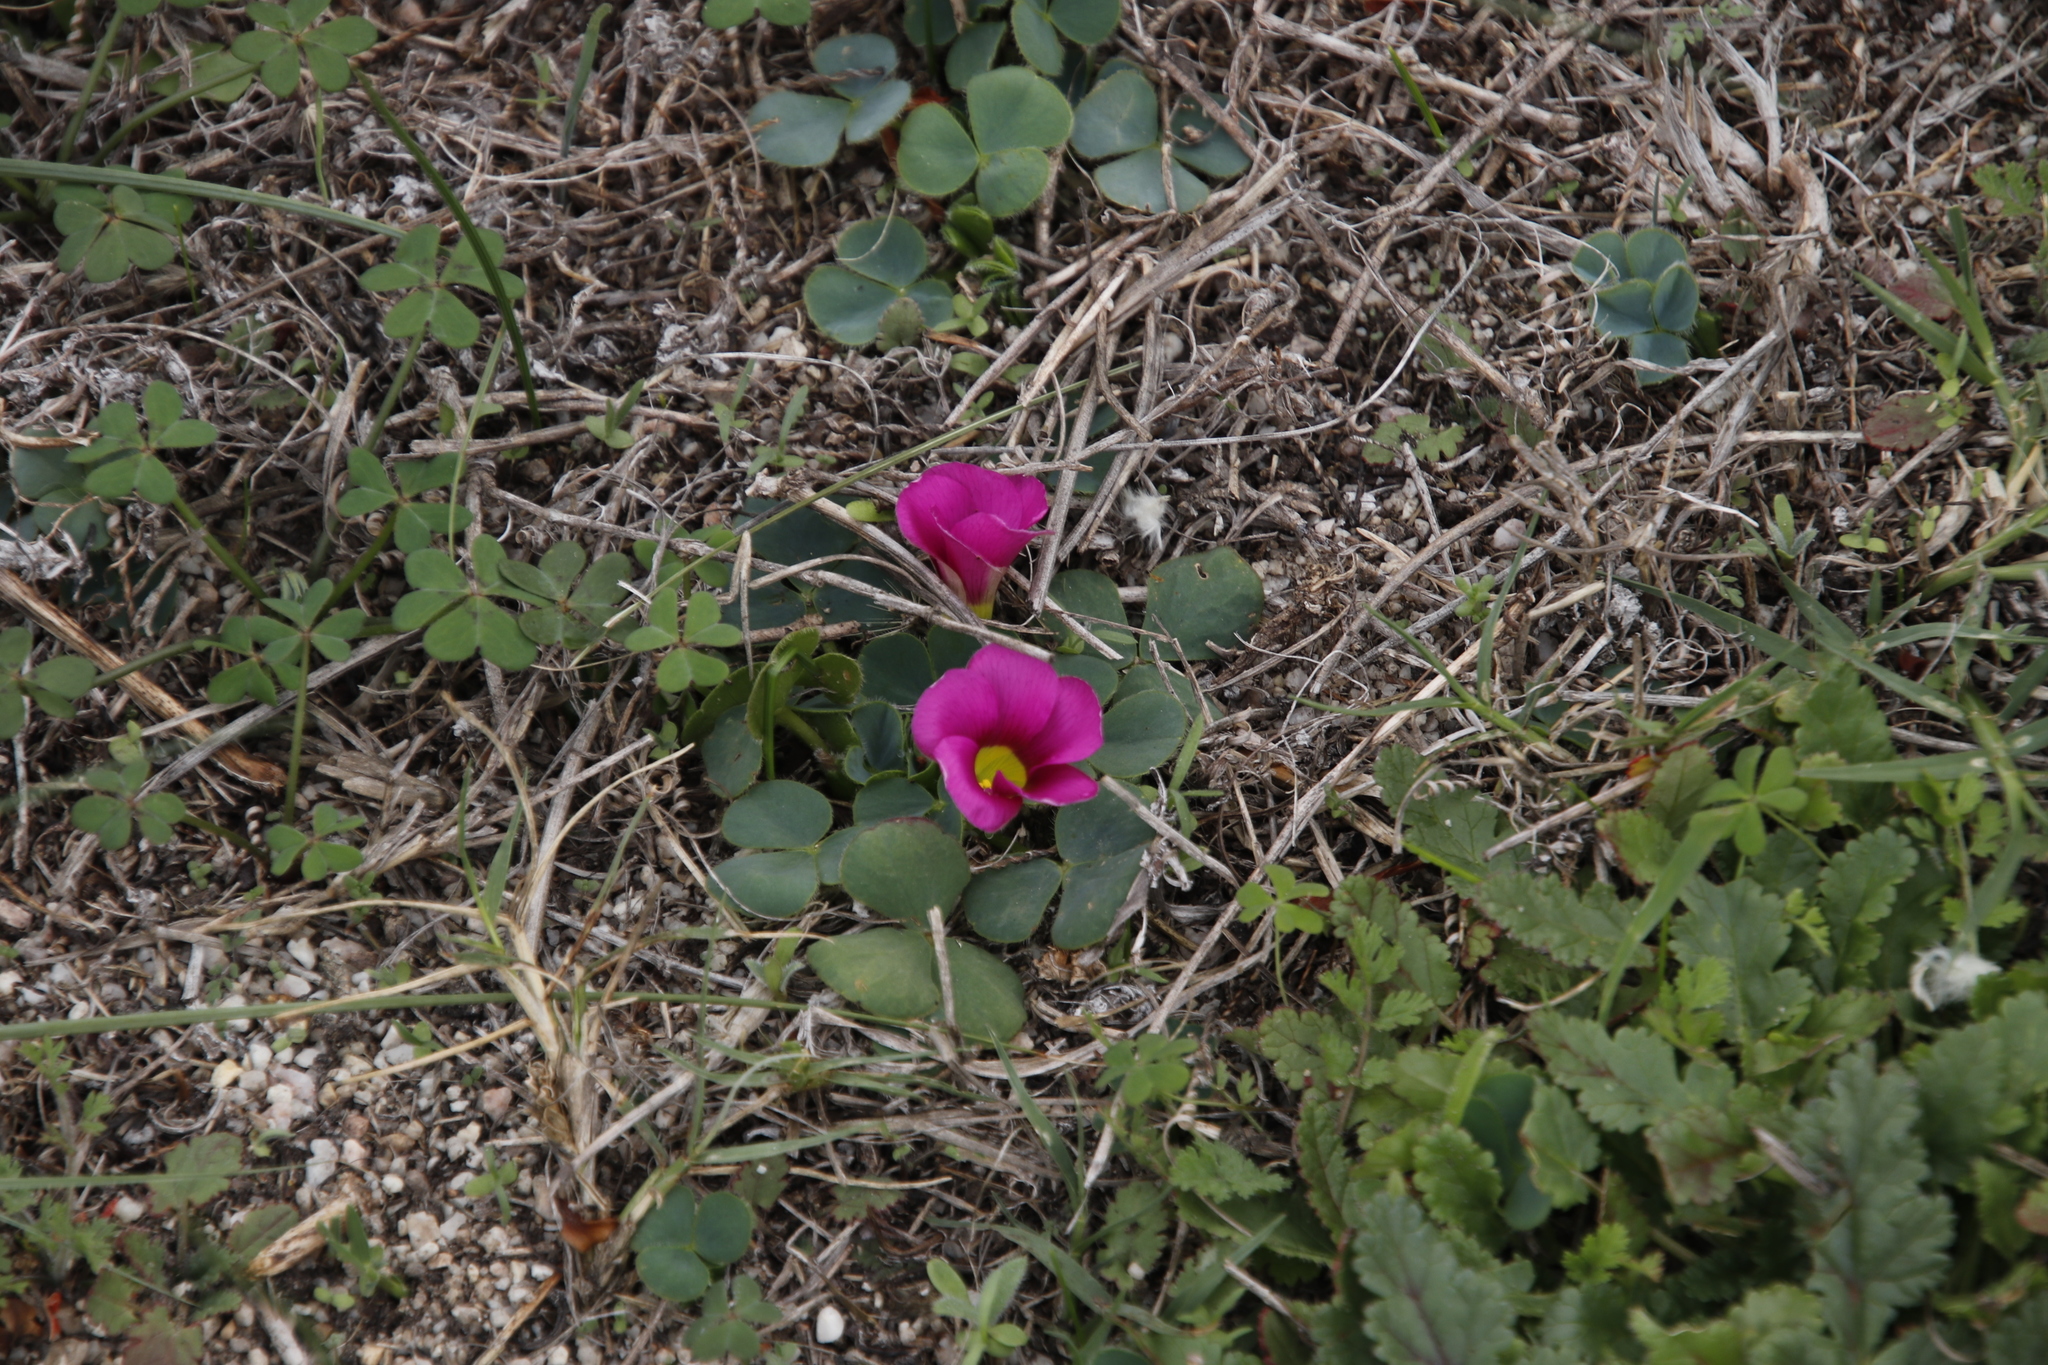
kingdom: Plantae
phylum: Tracheophyta
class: Magnoliopsida
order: Oxalidales
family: Oxalidaceae
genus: Oxalis
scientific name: Oxalis purpurea
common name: Purple woodsorrel
